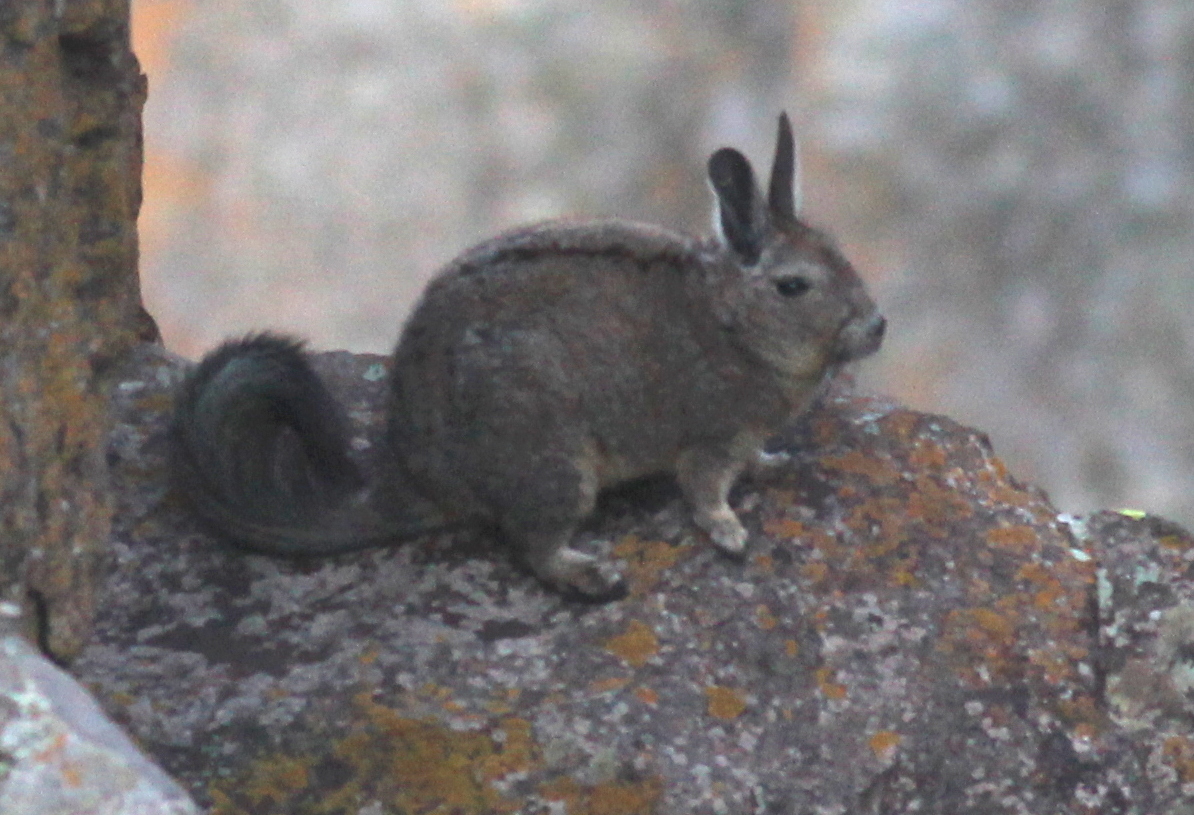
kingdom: Animalia
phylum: Chordata
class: Mammalia
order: Rodentia
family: Chinchillidae
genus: Lagidium
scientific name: Lagidium viscacia
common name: Southern viscacha
